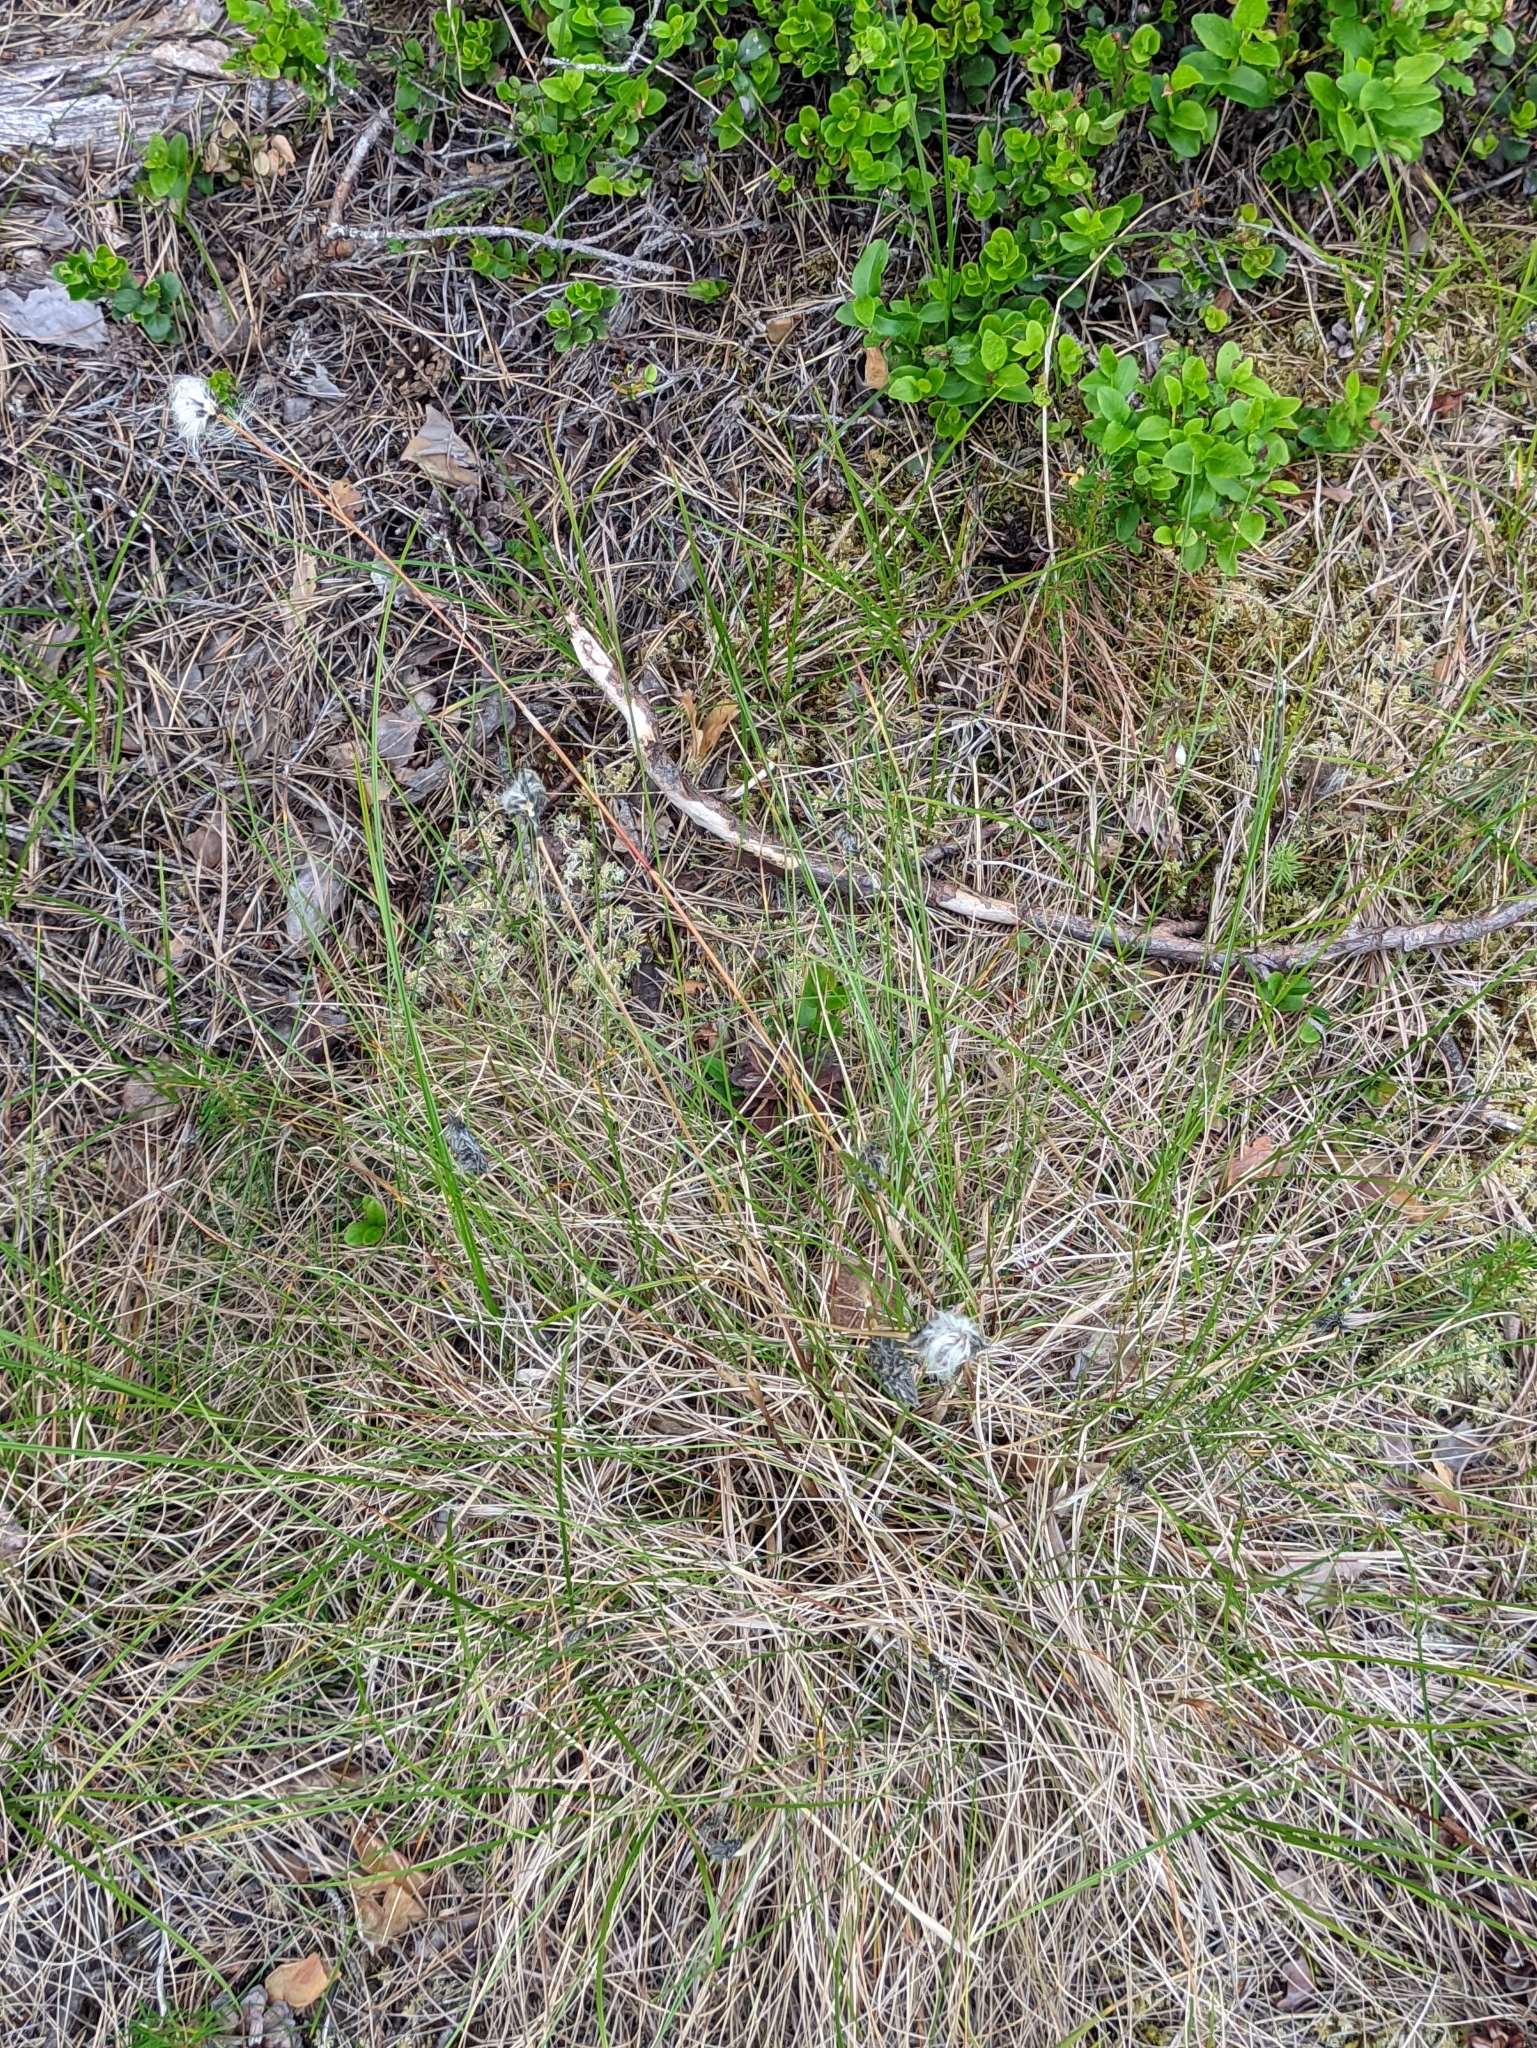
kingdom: Plantae
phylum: Tracheophyta
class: Liliopsida
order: Poales
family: Cyperaceae
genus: Eriophorum
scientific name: Eriophorum vaginatum
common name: Hare's-tail cottongrass
